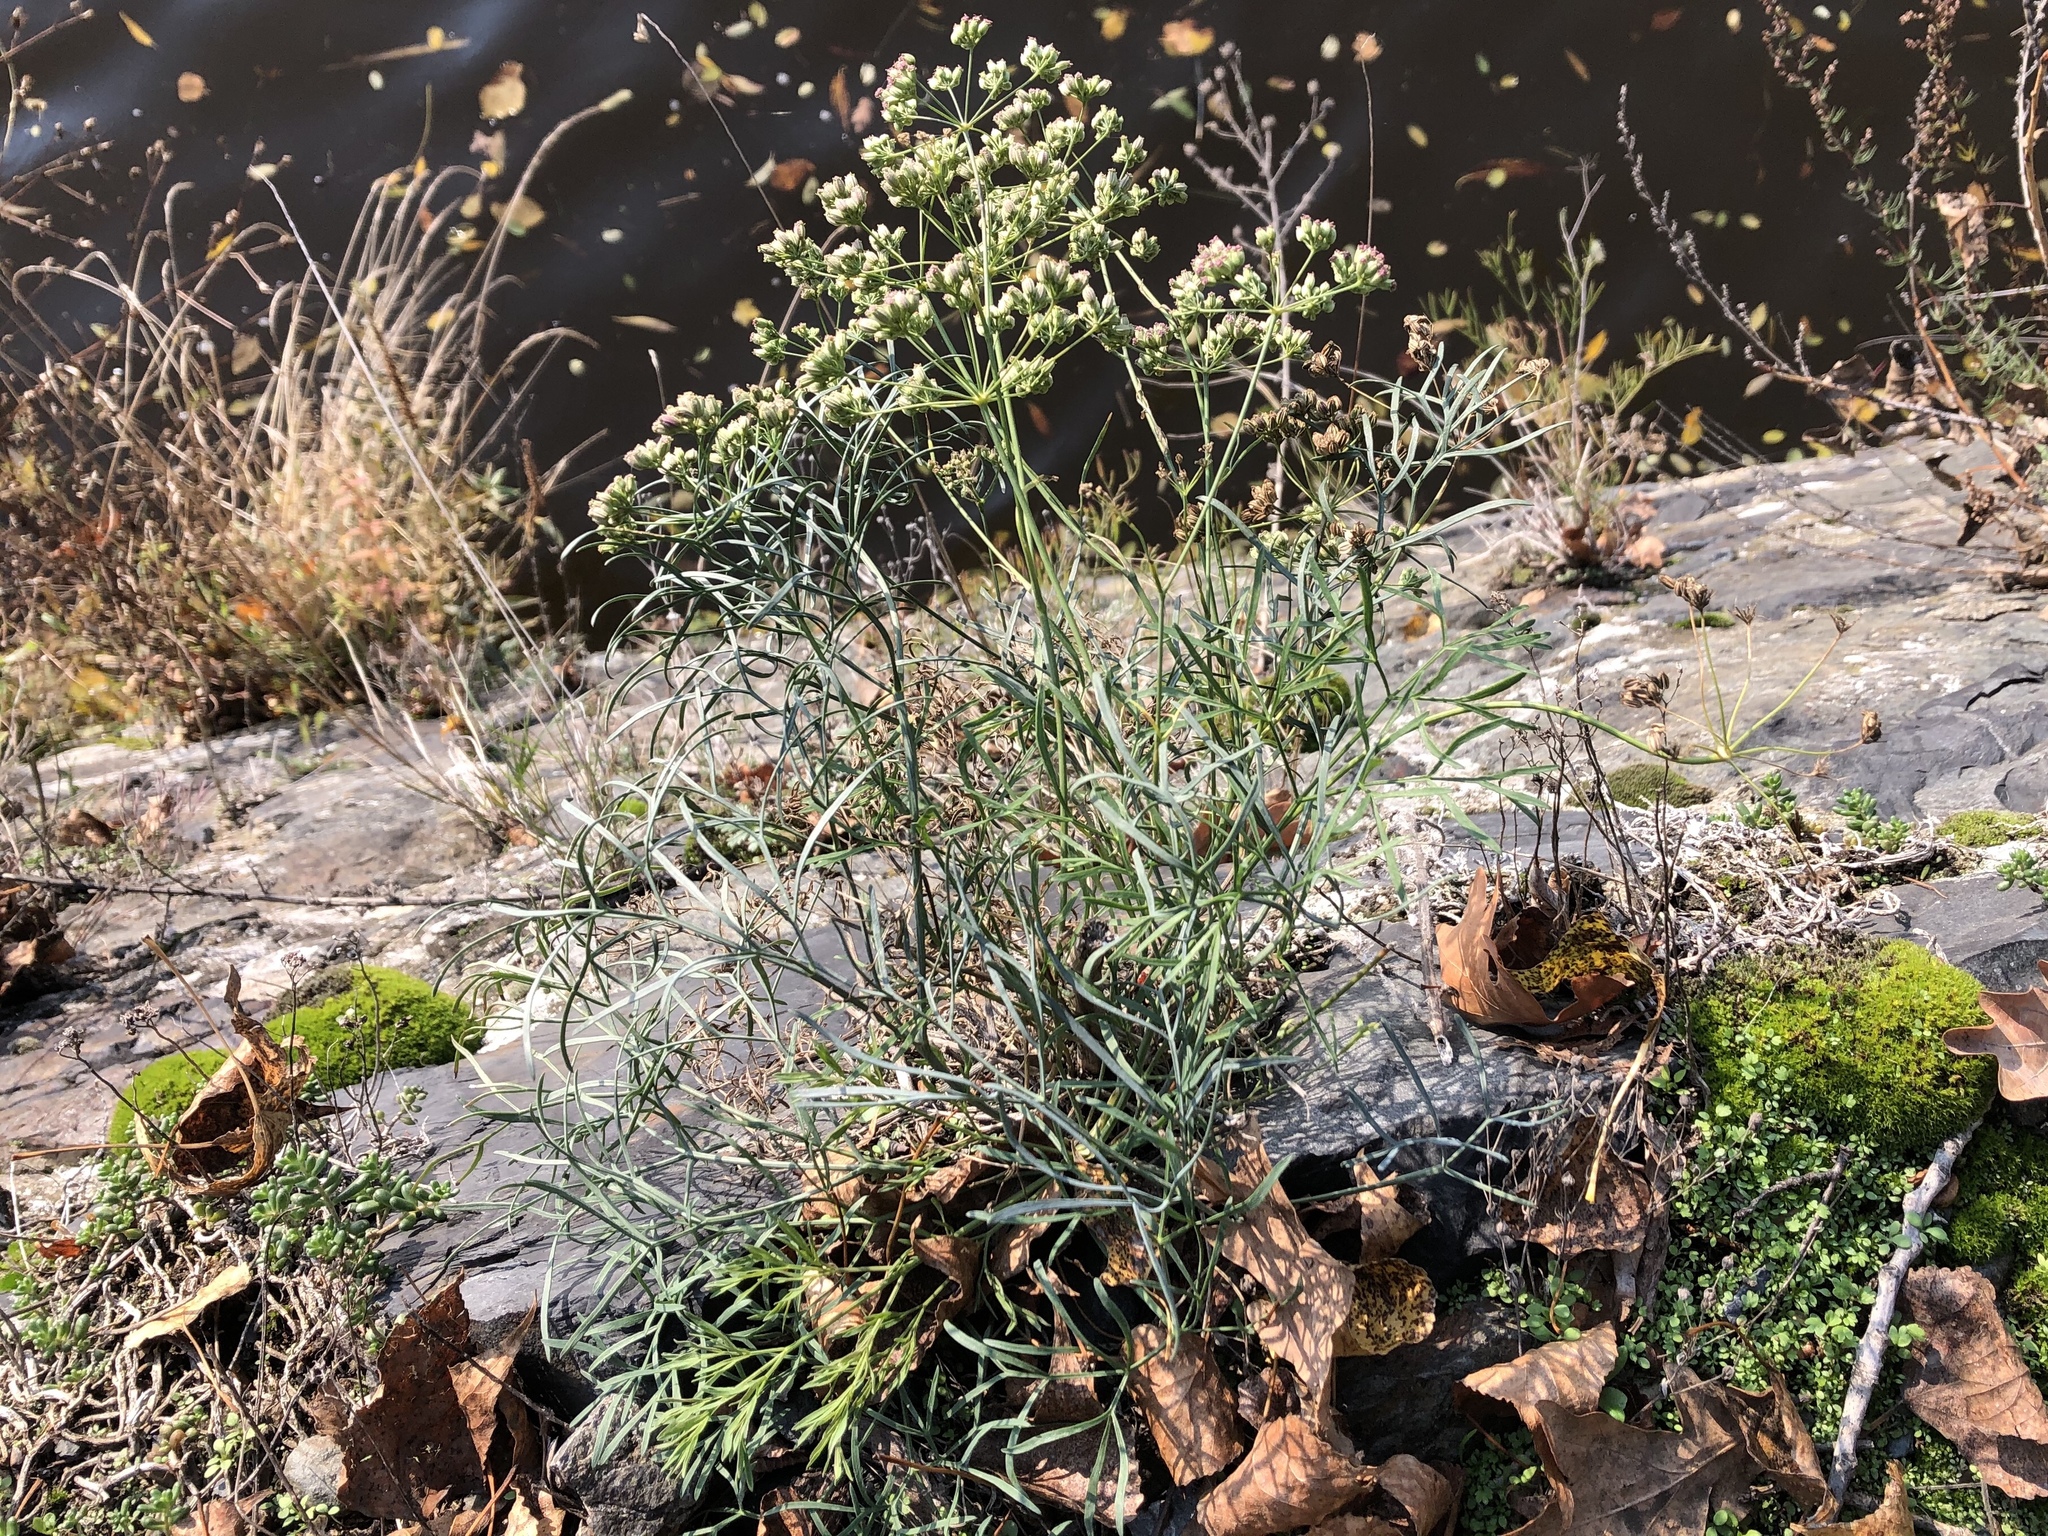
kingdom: Plantae
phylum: Tracheophyta
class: Magnoliopsida
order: Apiales
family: Apiaceae
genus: Seseli
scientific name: Seseli osseum
